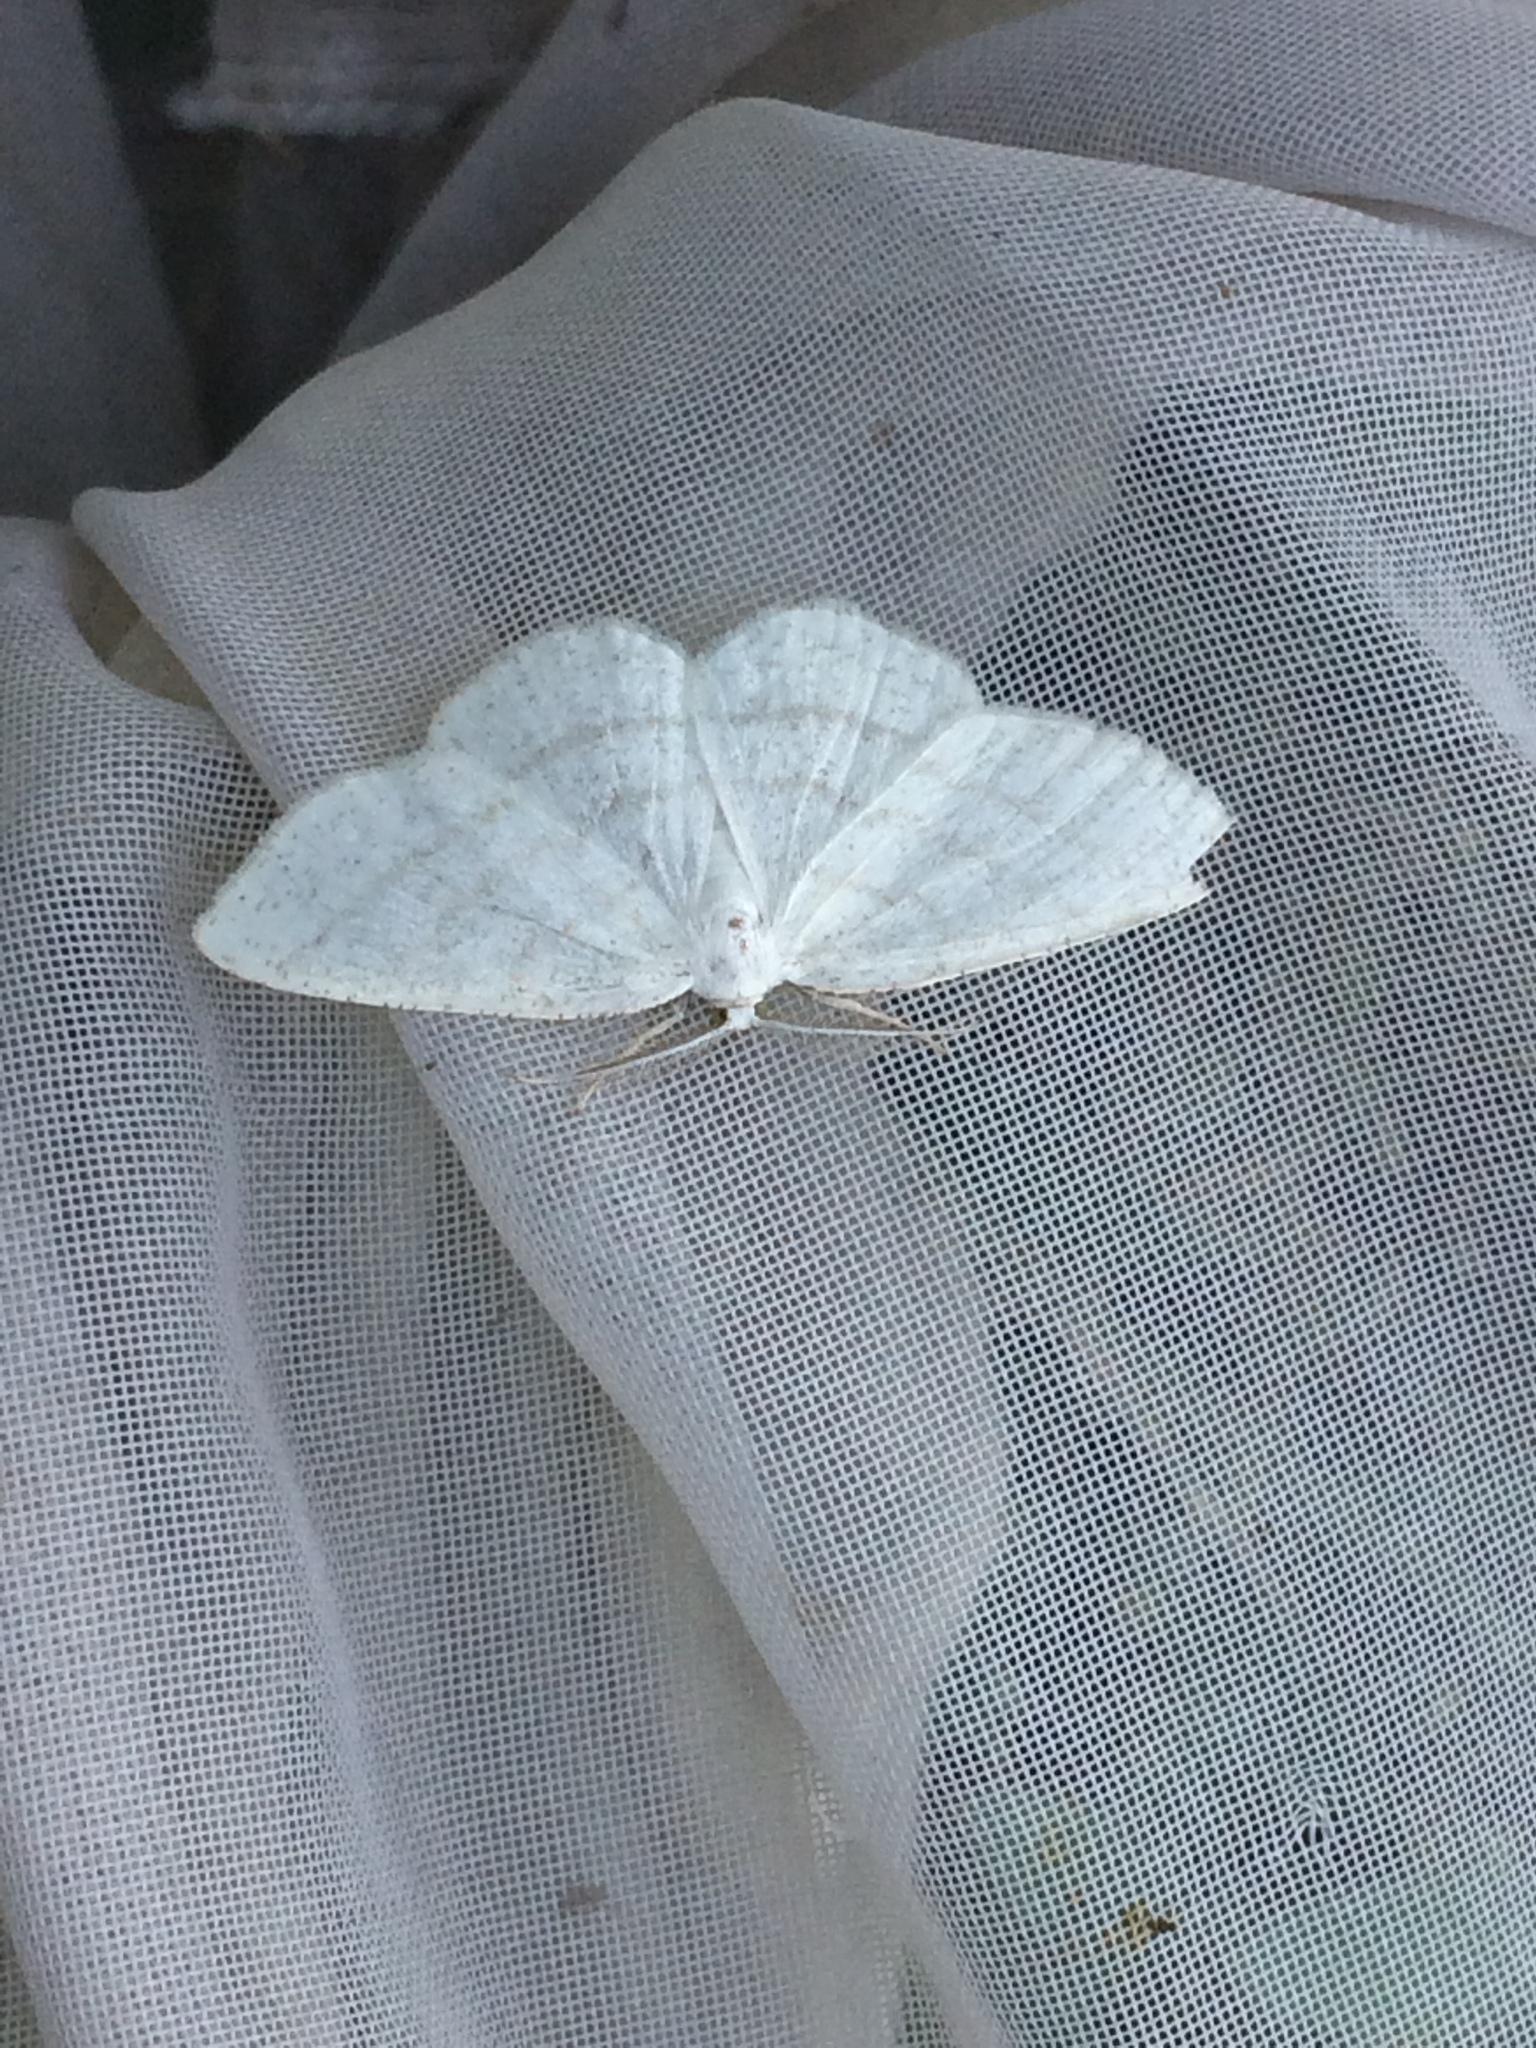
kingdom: Animalia
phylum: Arthropoda
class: Insecta
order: Lepidoptera
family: Geometridae
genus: Cabera
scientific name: Cabera pusaria
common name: Common white wave
